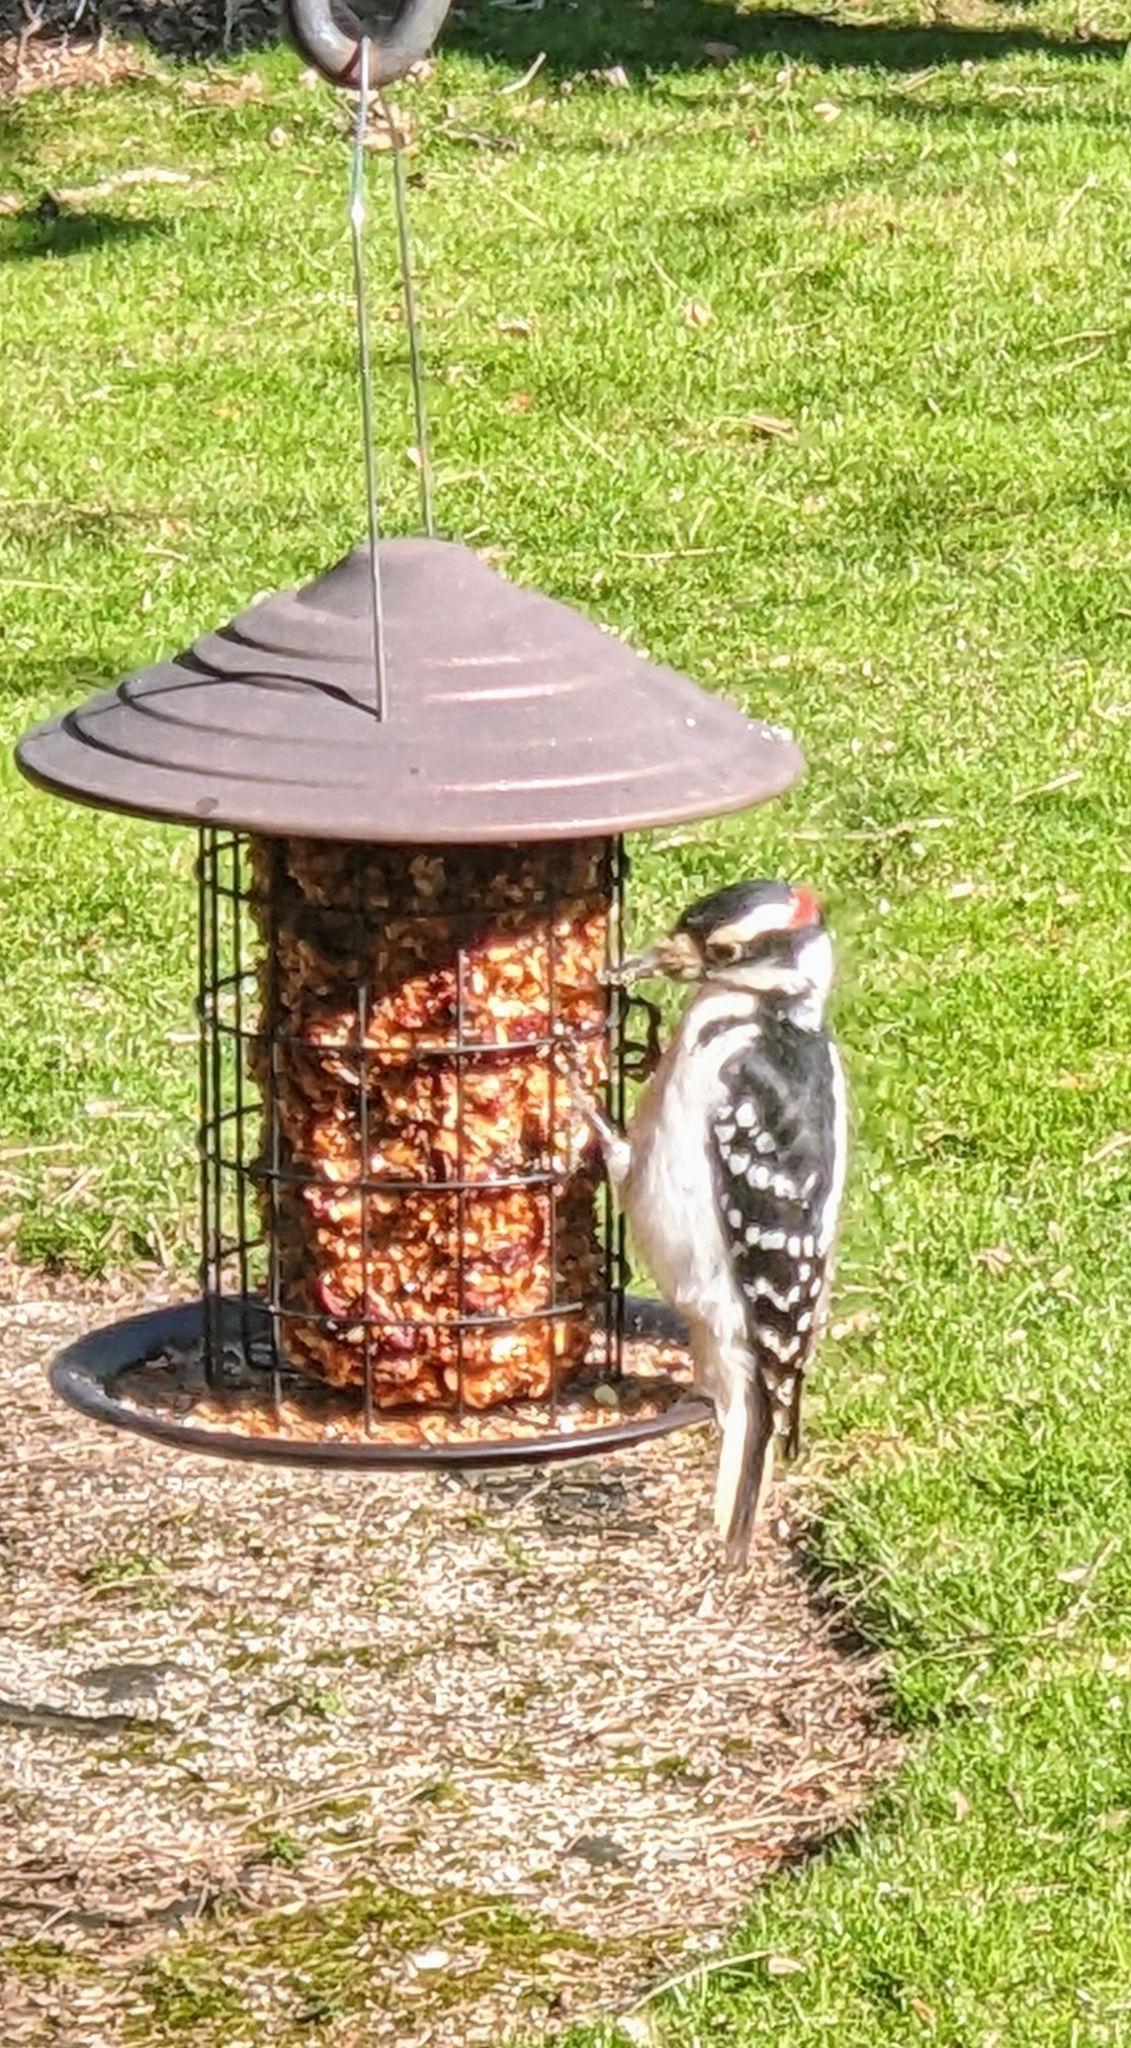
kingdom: Animalia
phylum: Chordata
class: Aves
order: Piciformes
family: Picidae
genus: Leuconotopicus
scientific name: Leuconotopicus villosus
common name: Hairy woodpecker
